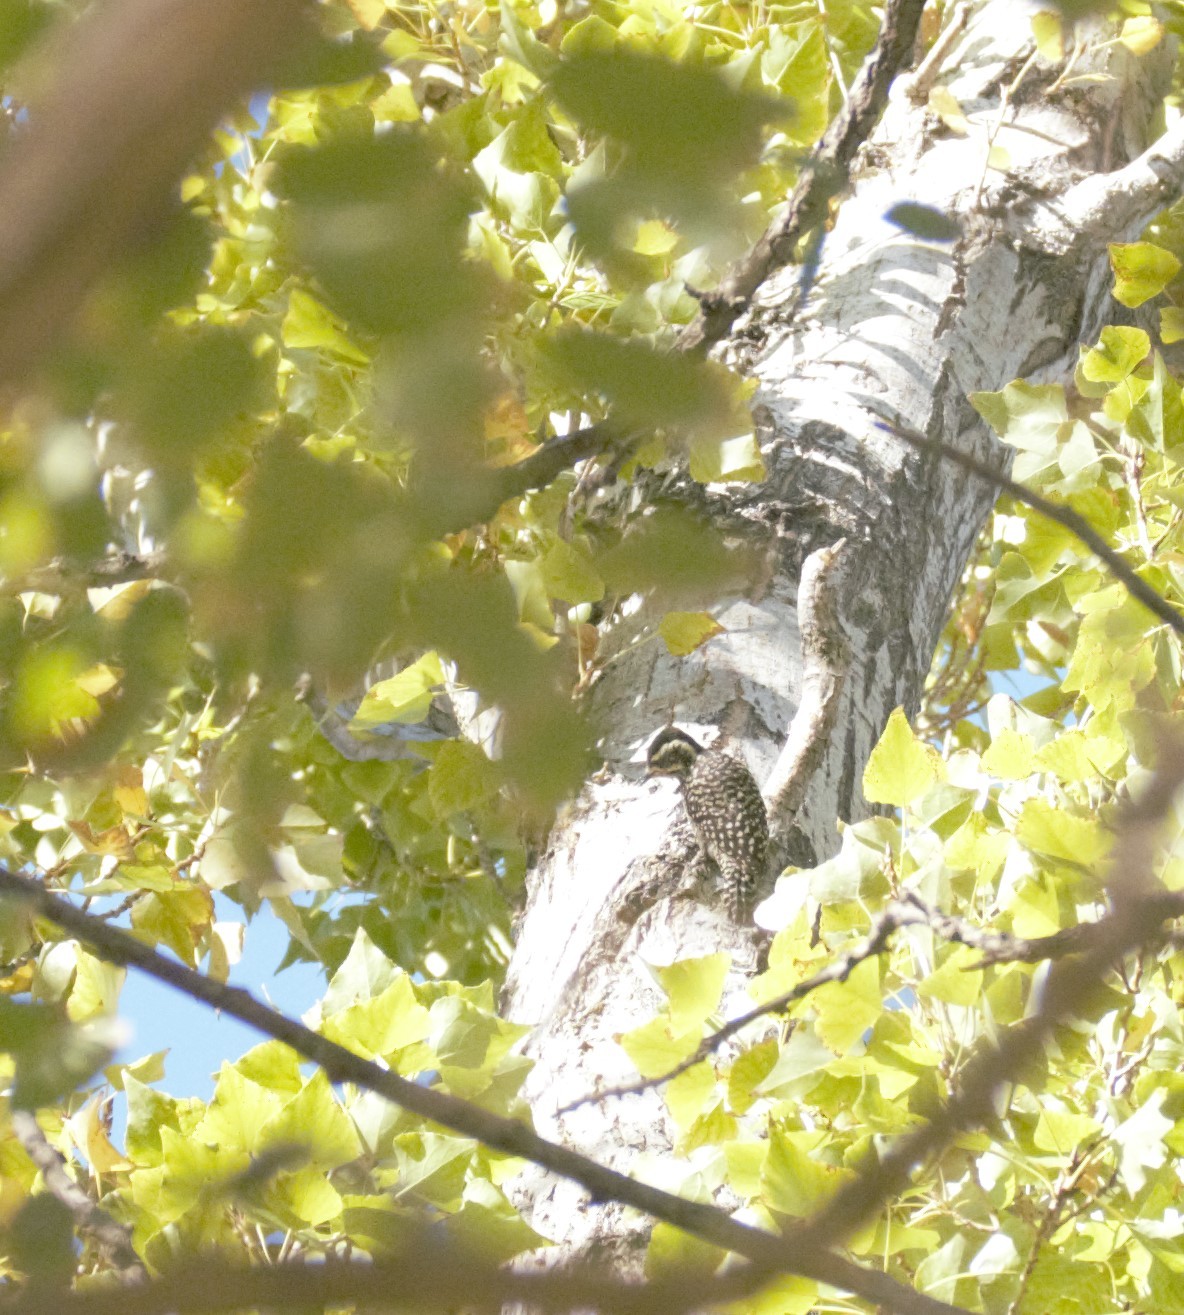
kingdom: Animalia
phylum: Chordata
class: Aves
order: Piciformes
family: Picidae
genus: Veniliornis
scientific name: Veniliornis mixtus
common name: Checkered woodpecker
